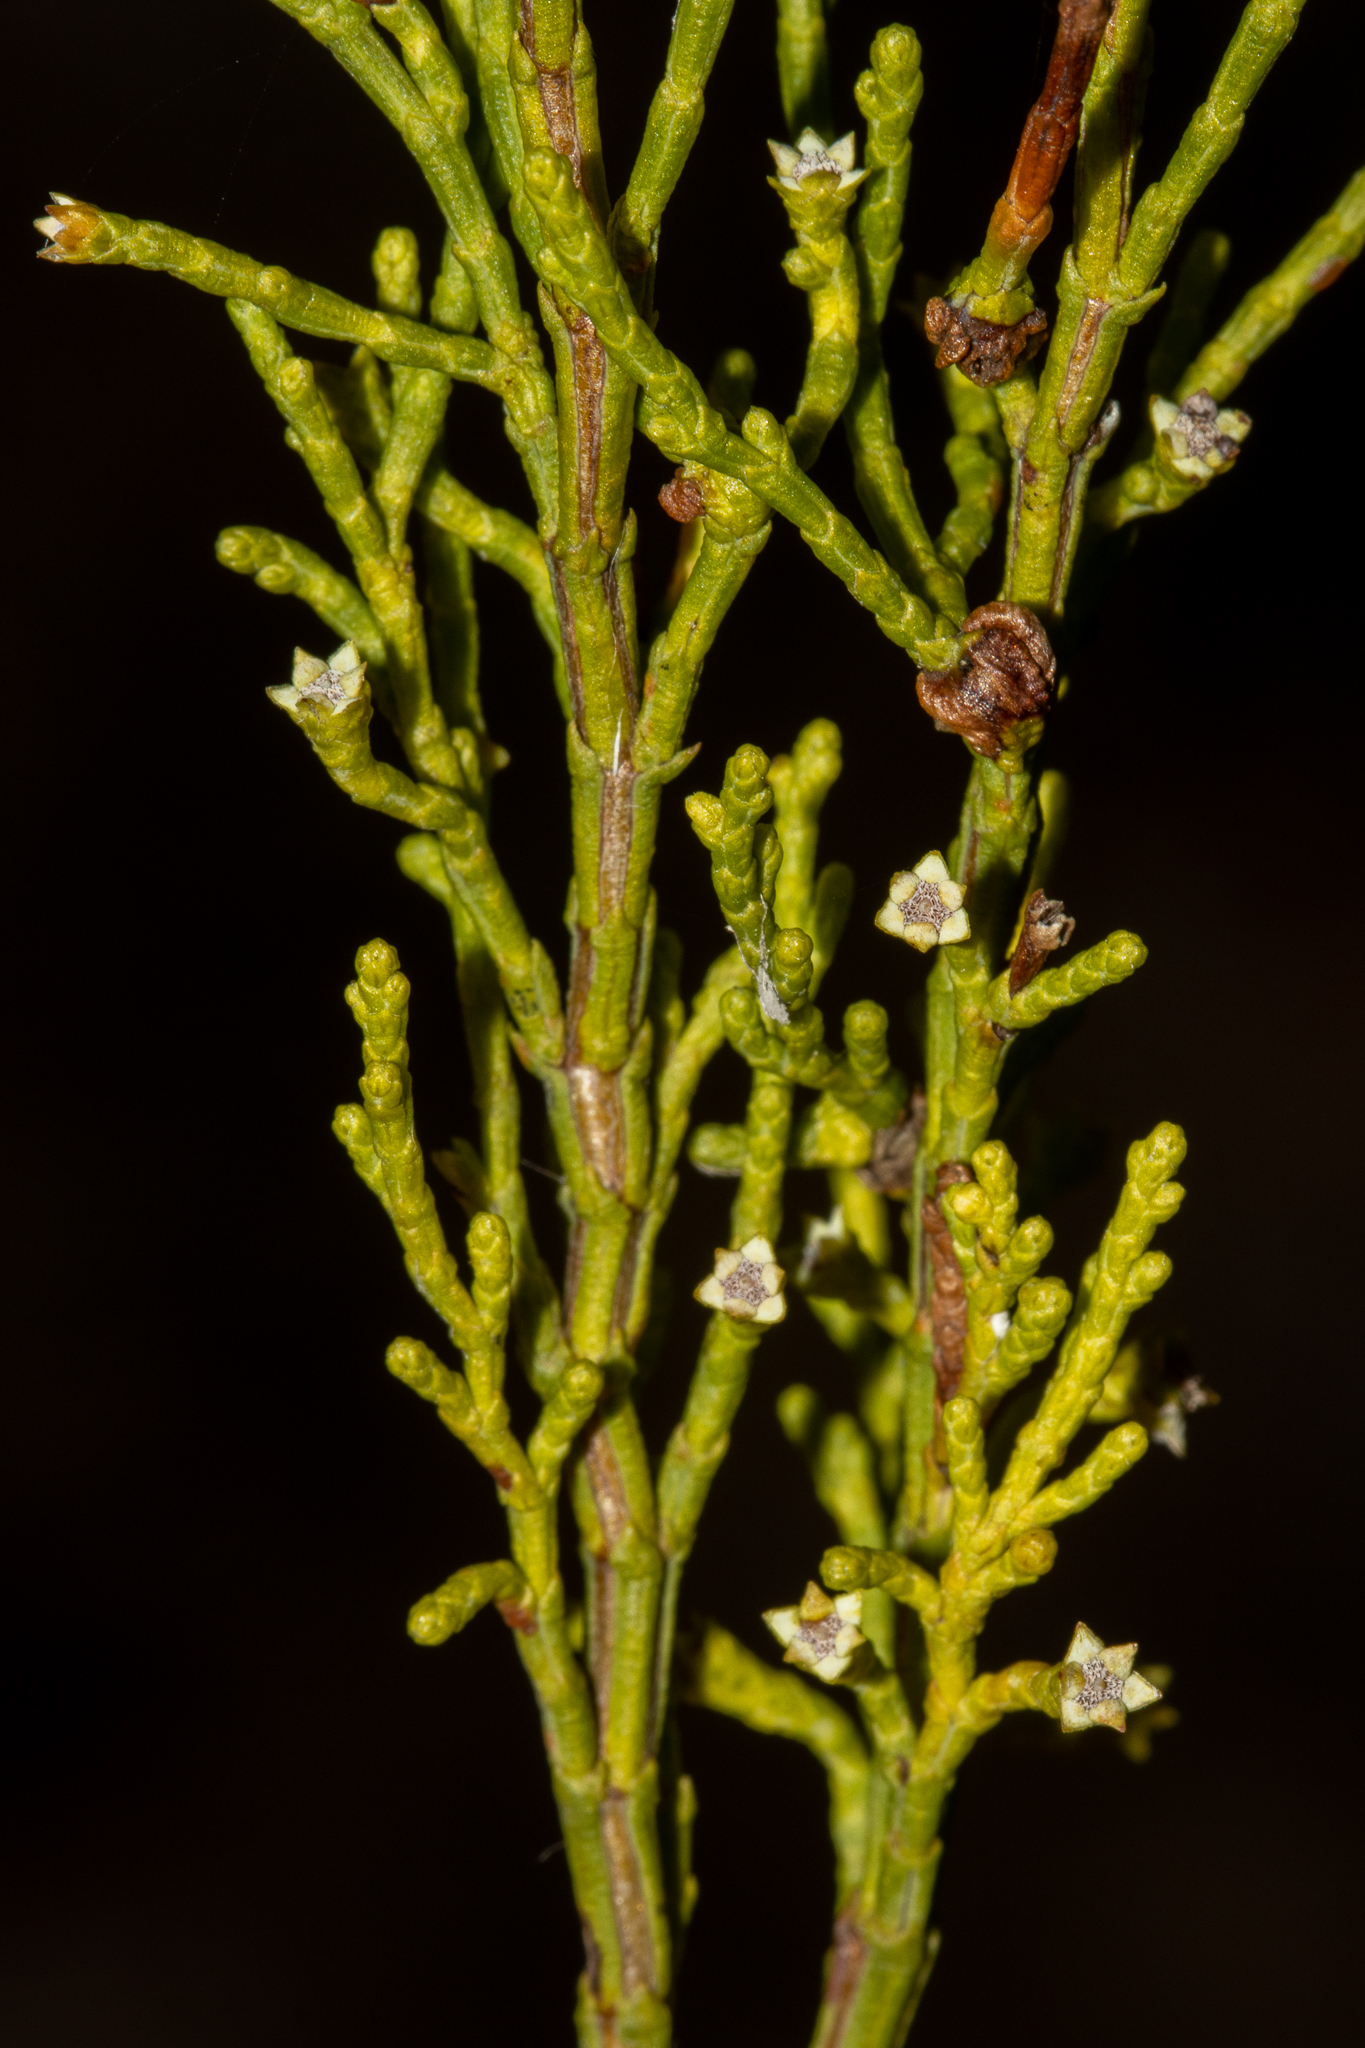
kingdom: Plantae
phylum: Tracheophyta
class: Pinopsida
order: Pinales
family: Cupressaceae
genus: Callitris
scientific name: Callitris preissii
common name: Mallee pine
